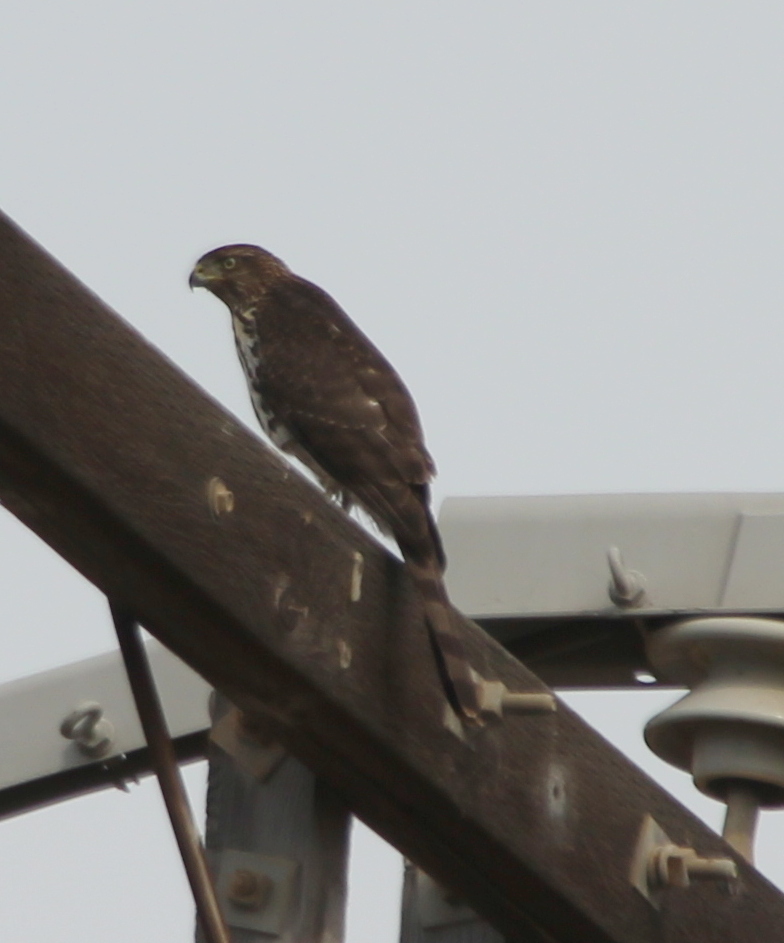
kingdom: Animalia
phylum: Chordata
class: Aves
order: Accipitriformes
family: Accipitridae
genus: Accipiter
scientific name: Accipiter cooperii
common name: Cooper's hawk
